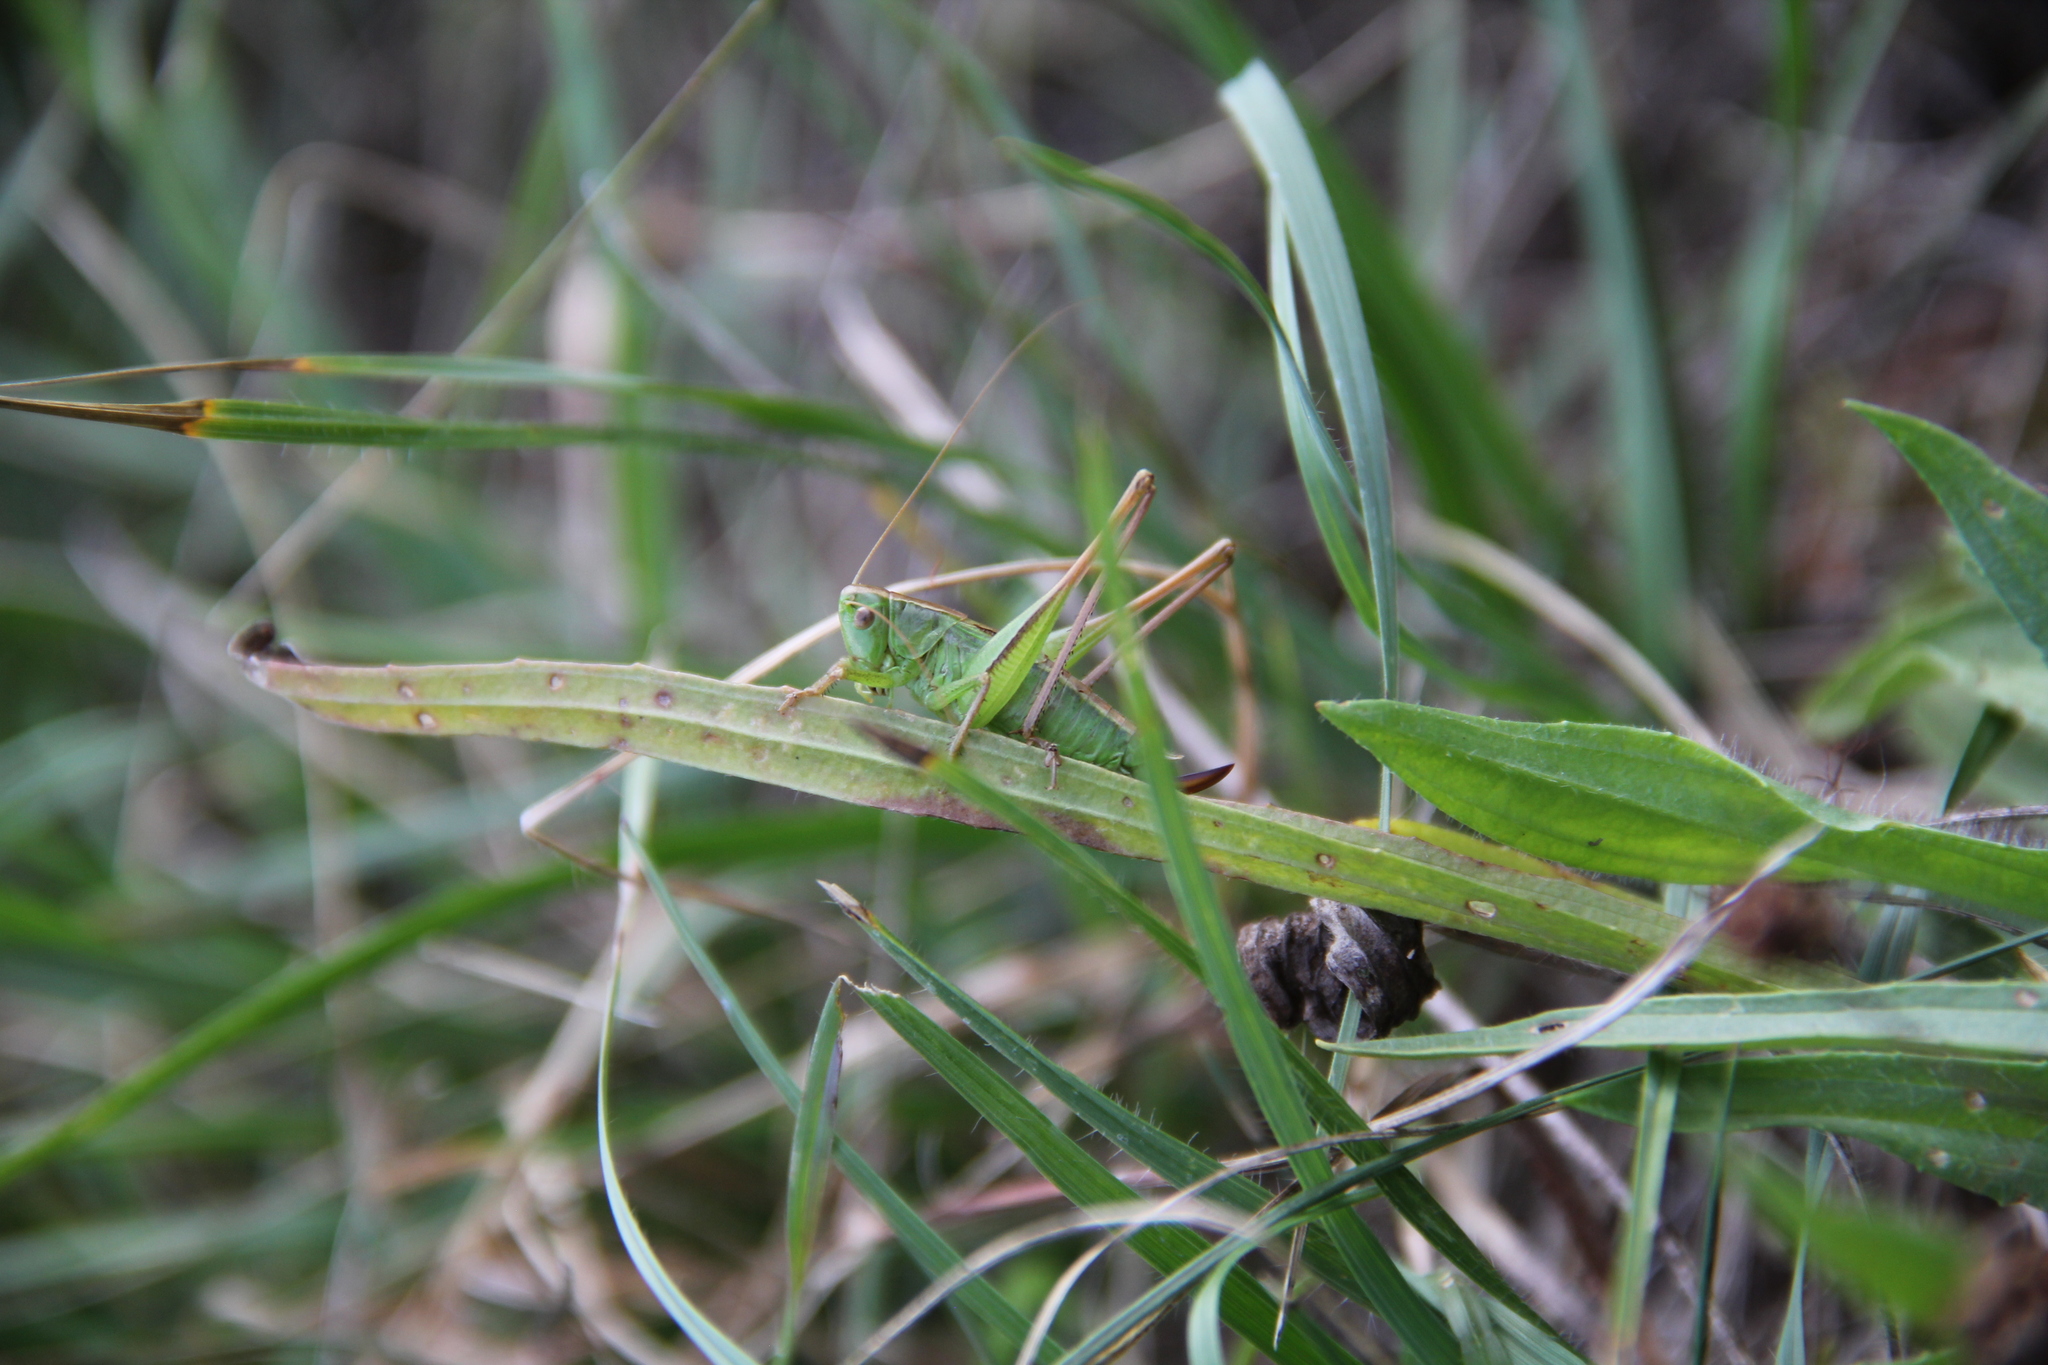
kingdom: Animalia
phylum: Arthropoda
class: Insecta
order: Orthoptera
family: Tettigoniidae
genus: Bicolorana
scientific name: Bicolorana bicolor
